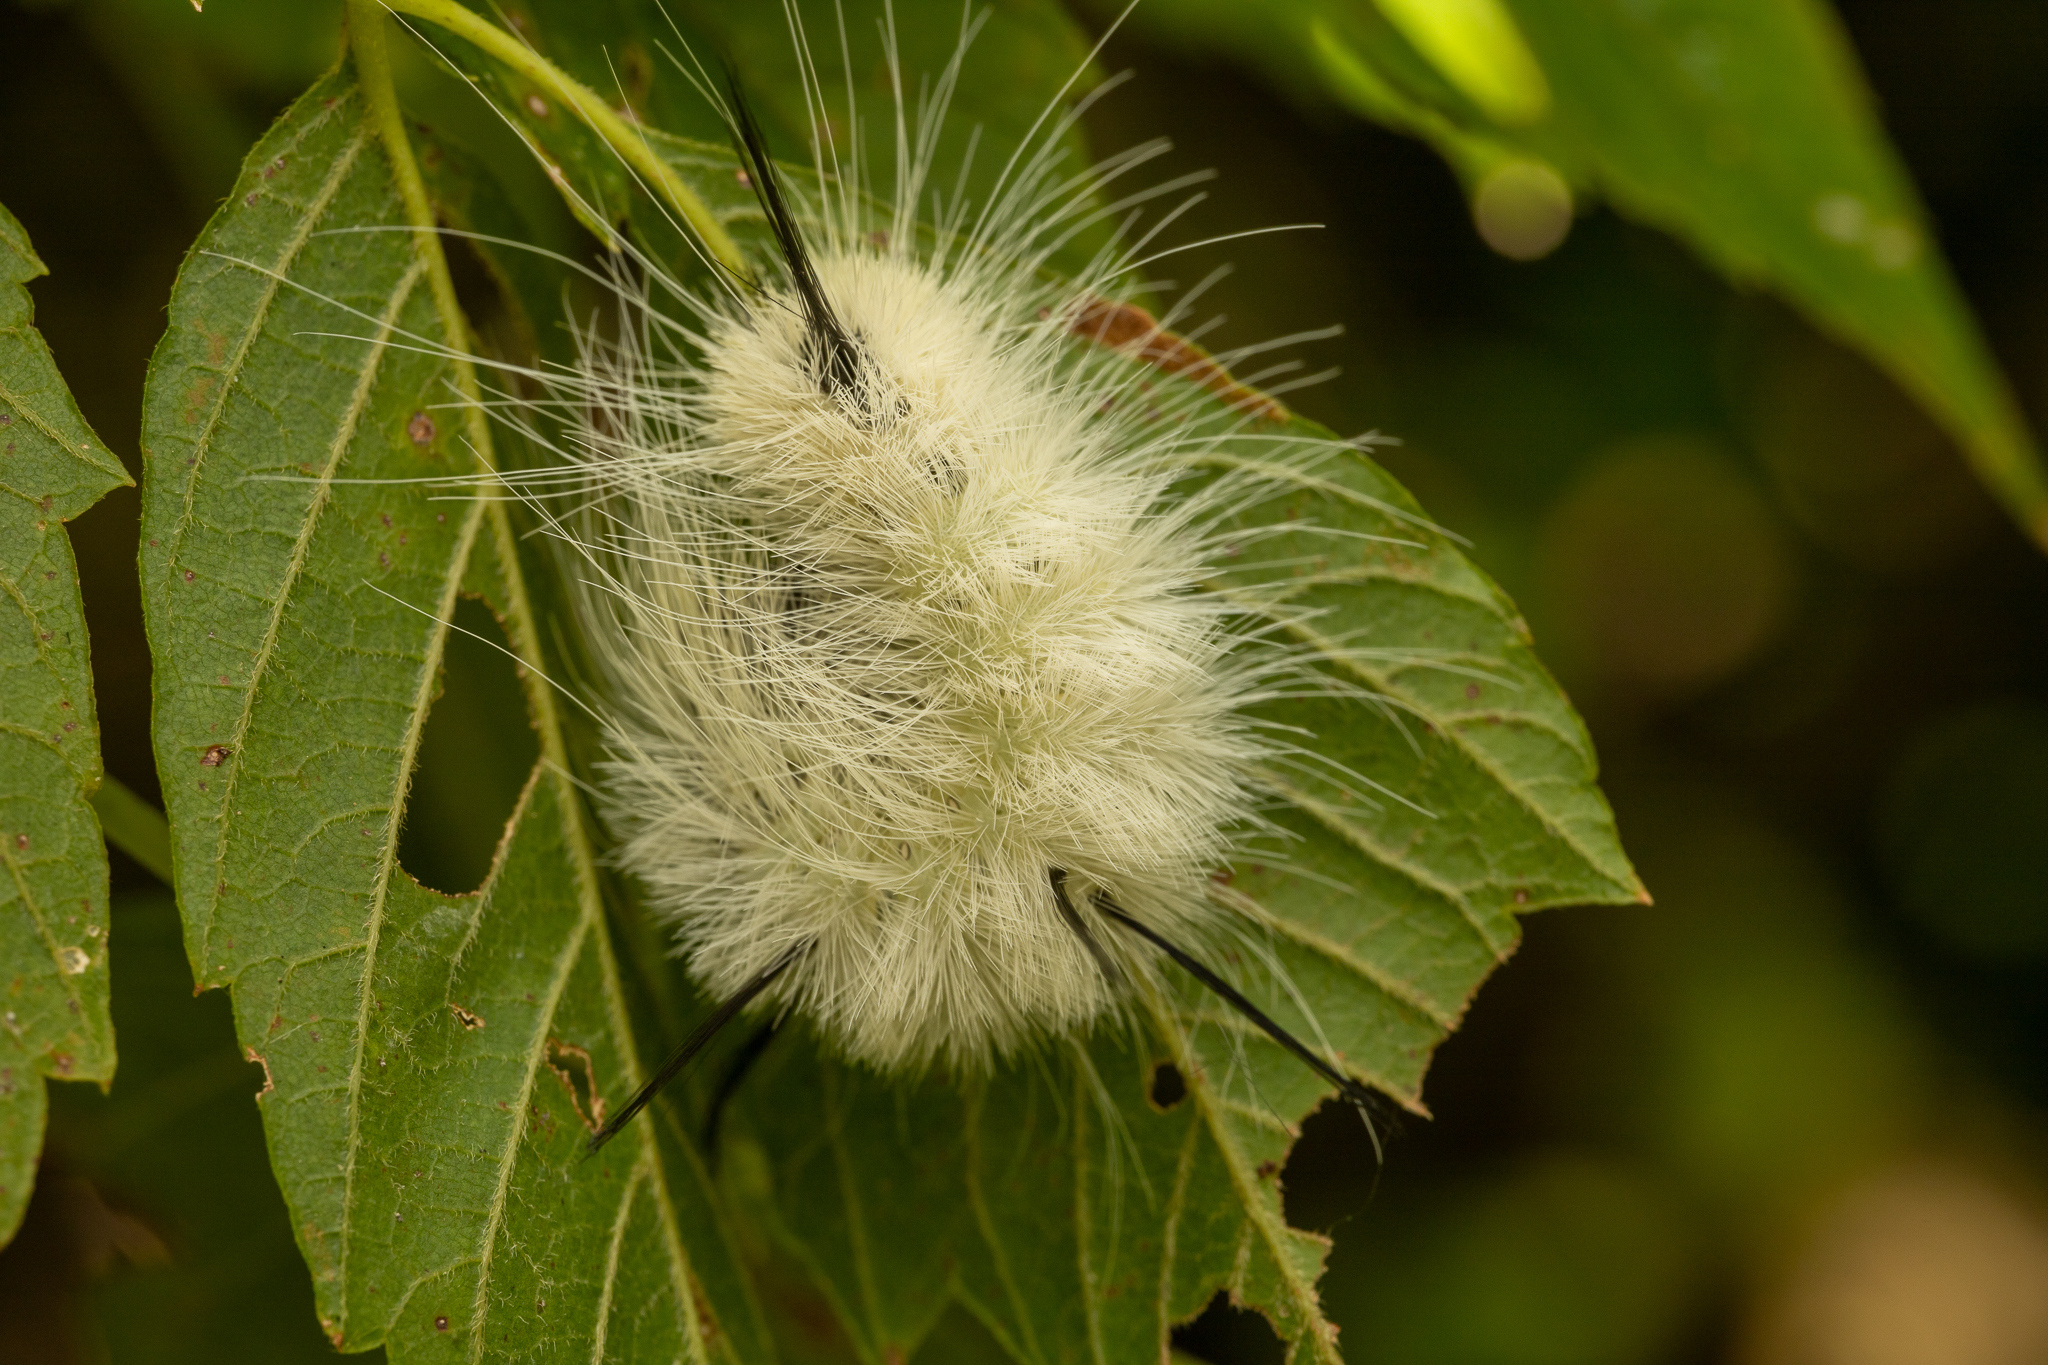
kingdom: Animalia
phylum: Arthropoda
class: Insecta
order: Lepidoptera
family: Noctuidae
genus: Acronicta
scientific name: Acronicta americana
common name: American dagger
